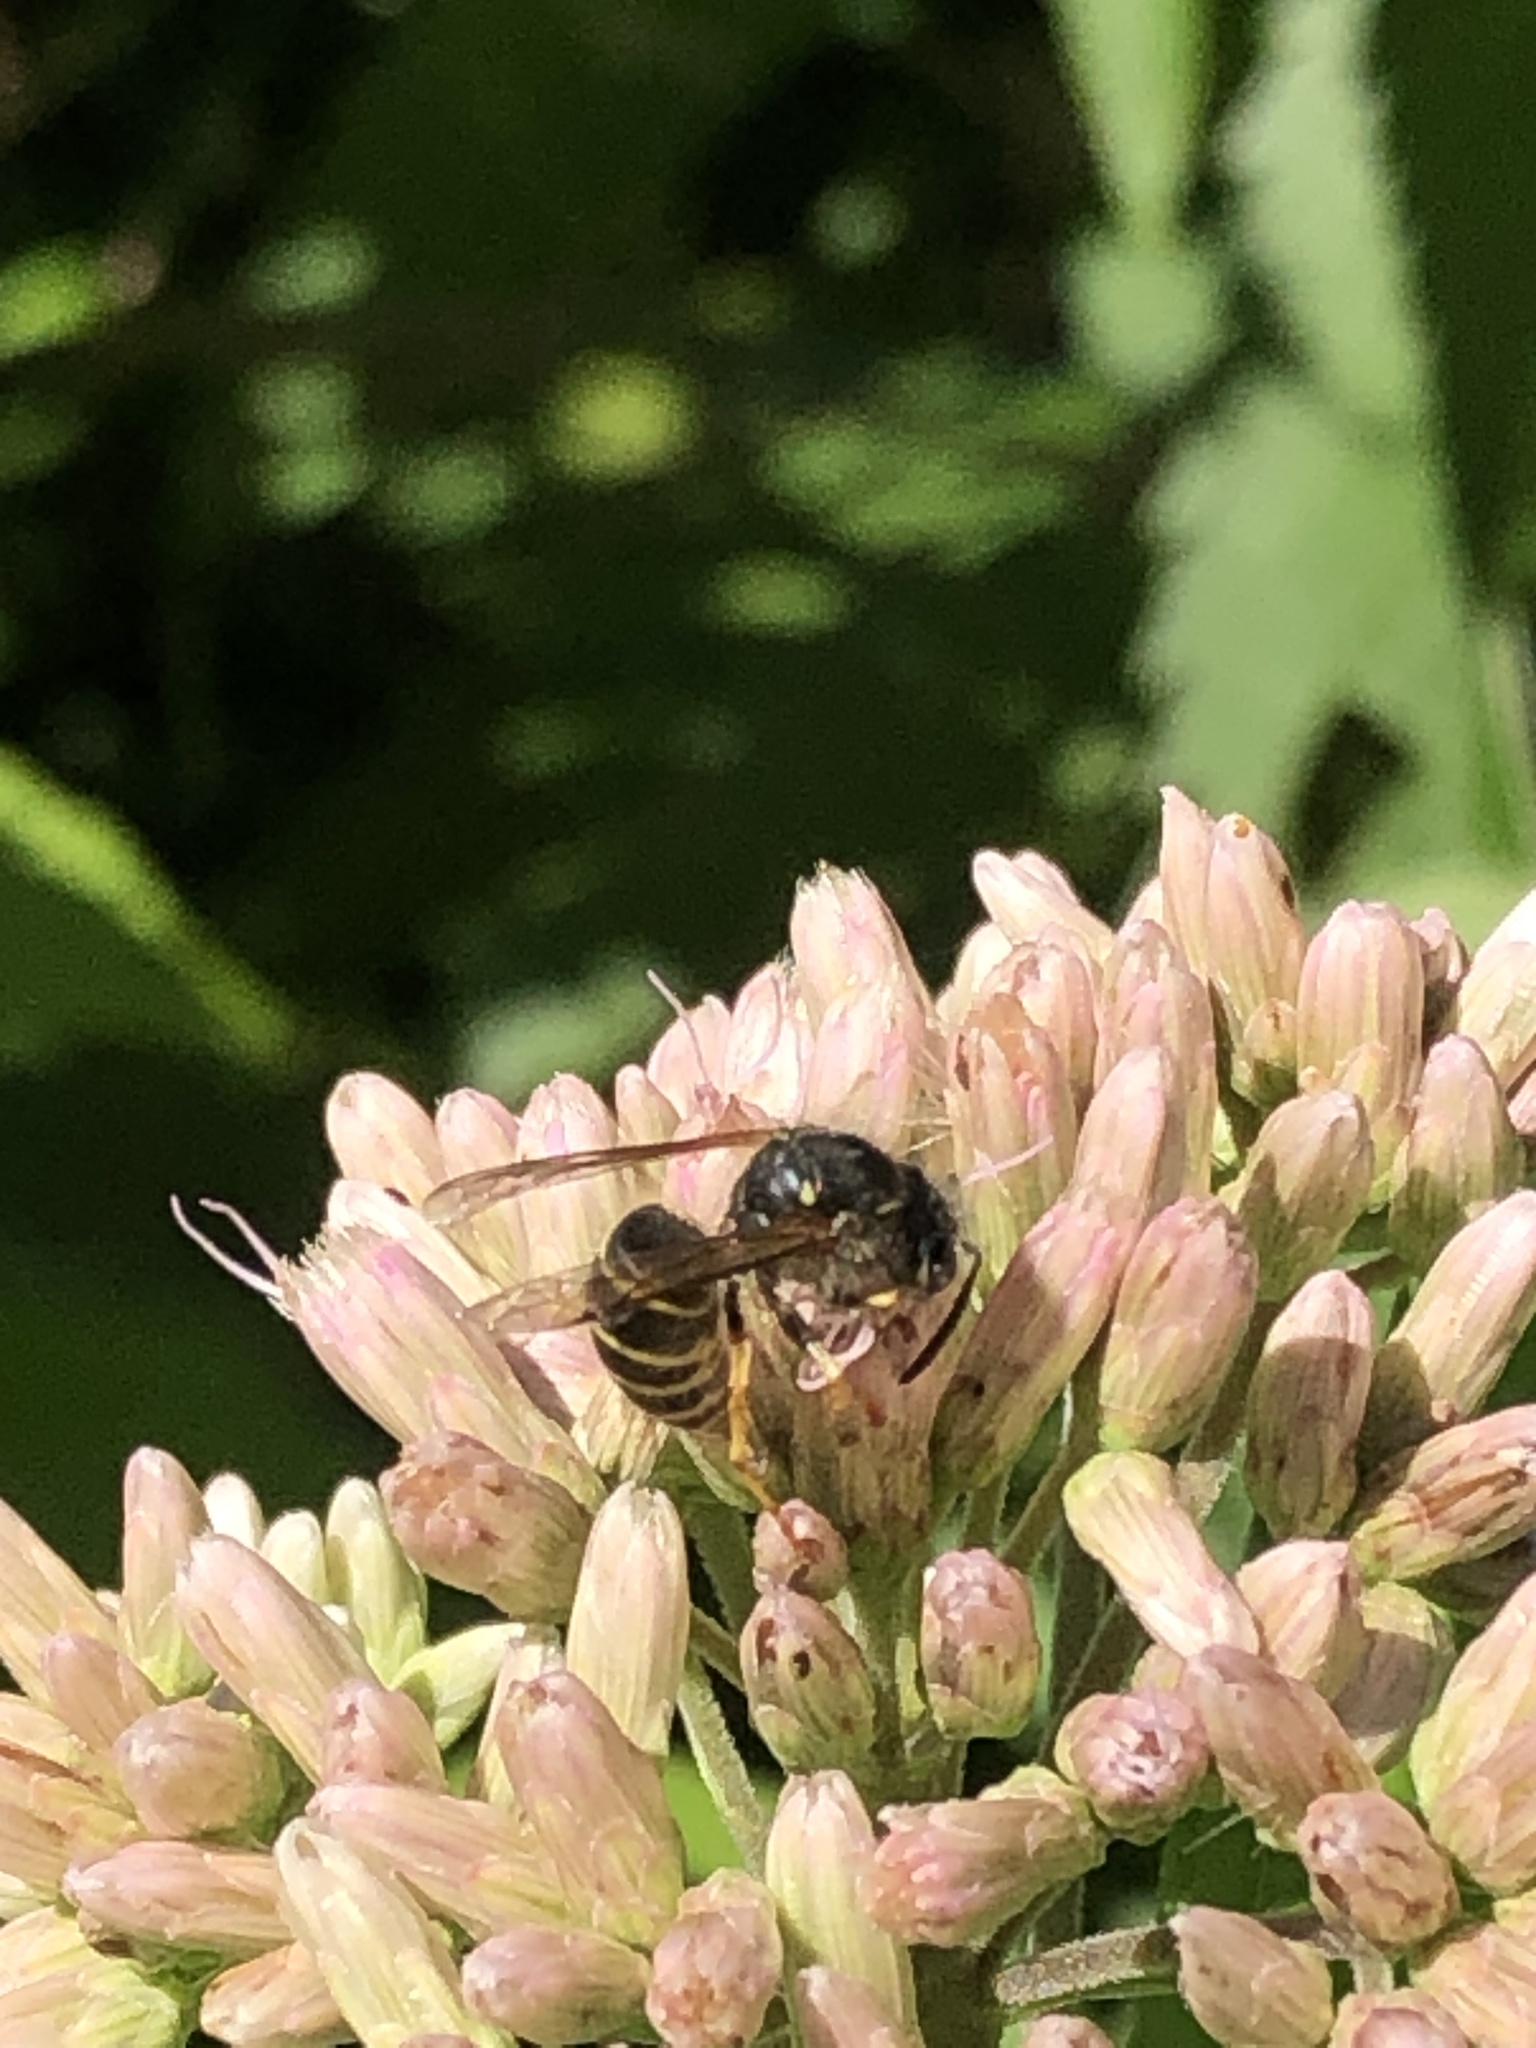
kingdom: Animalia
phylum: Arthropoda
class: Insecta
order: Hymenoptera
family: Vespidae
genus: Dolichovespula
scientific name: Dolichovespula norvegicoides
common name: Northern aerial yellowjacket
